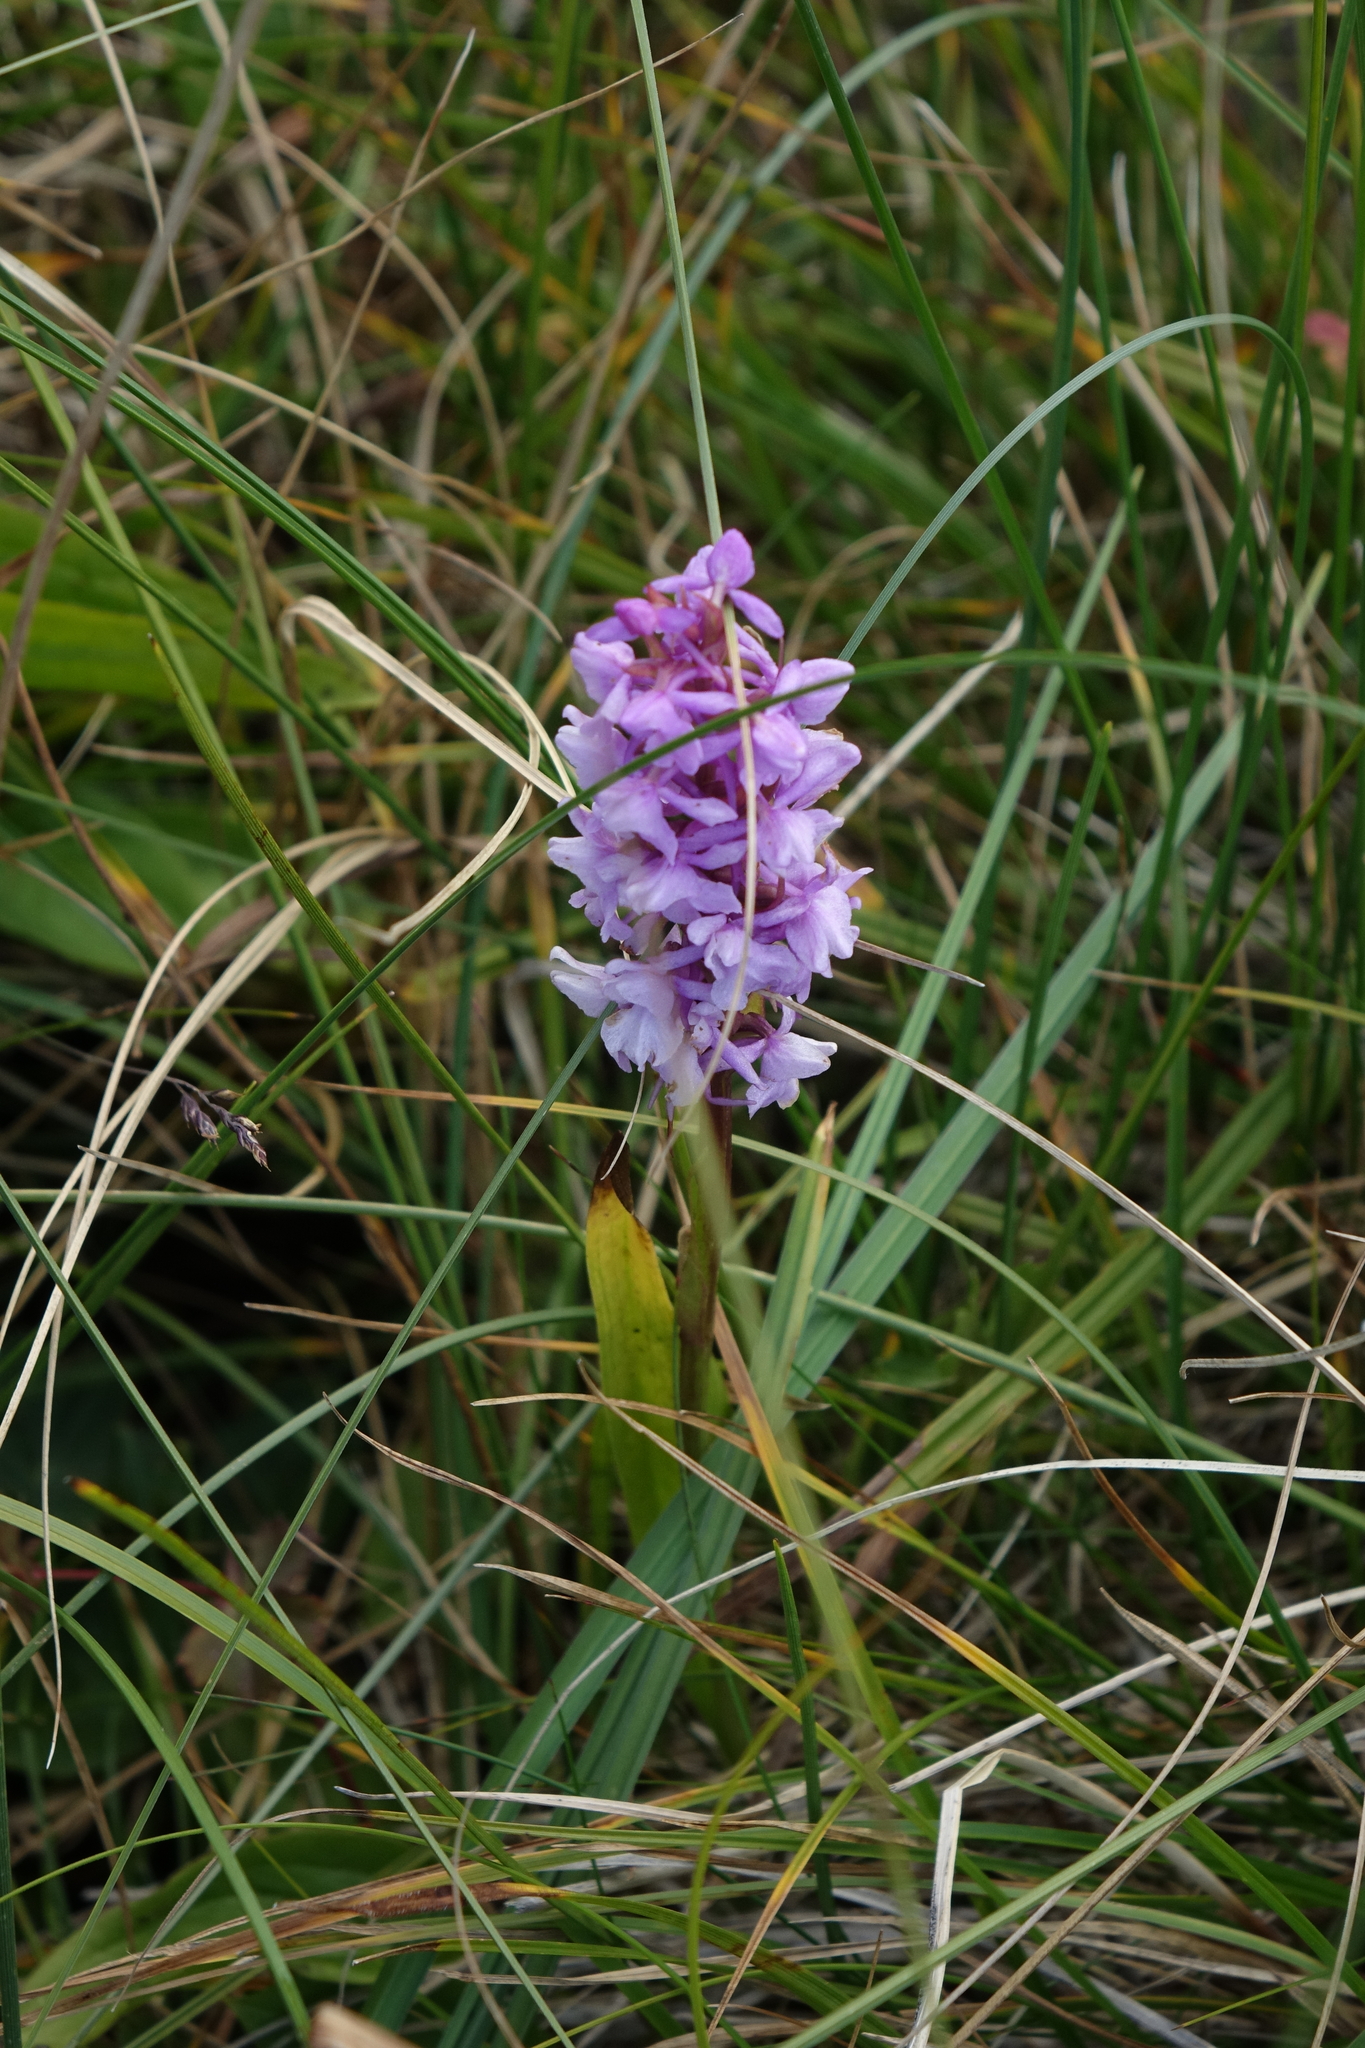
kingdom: Plantae
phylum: Tracheophyta
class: Liliopsida
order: Asparagales
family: Orchidaceae
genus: Gymnadenia
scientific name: Gymnadenia conopsea
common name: Fragrant orchid
